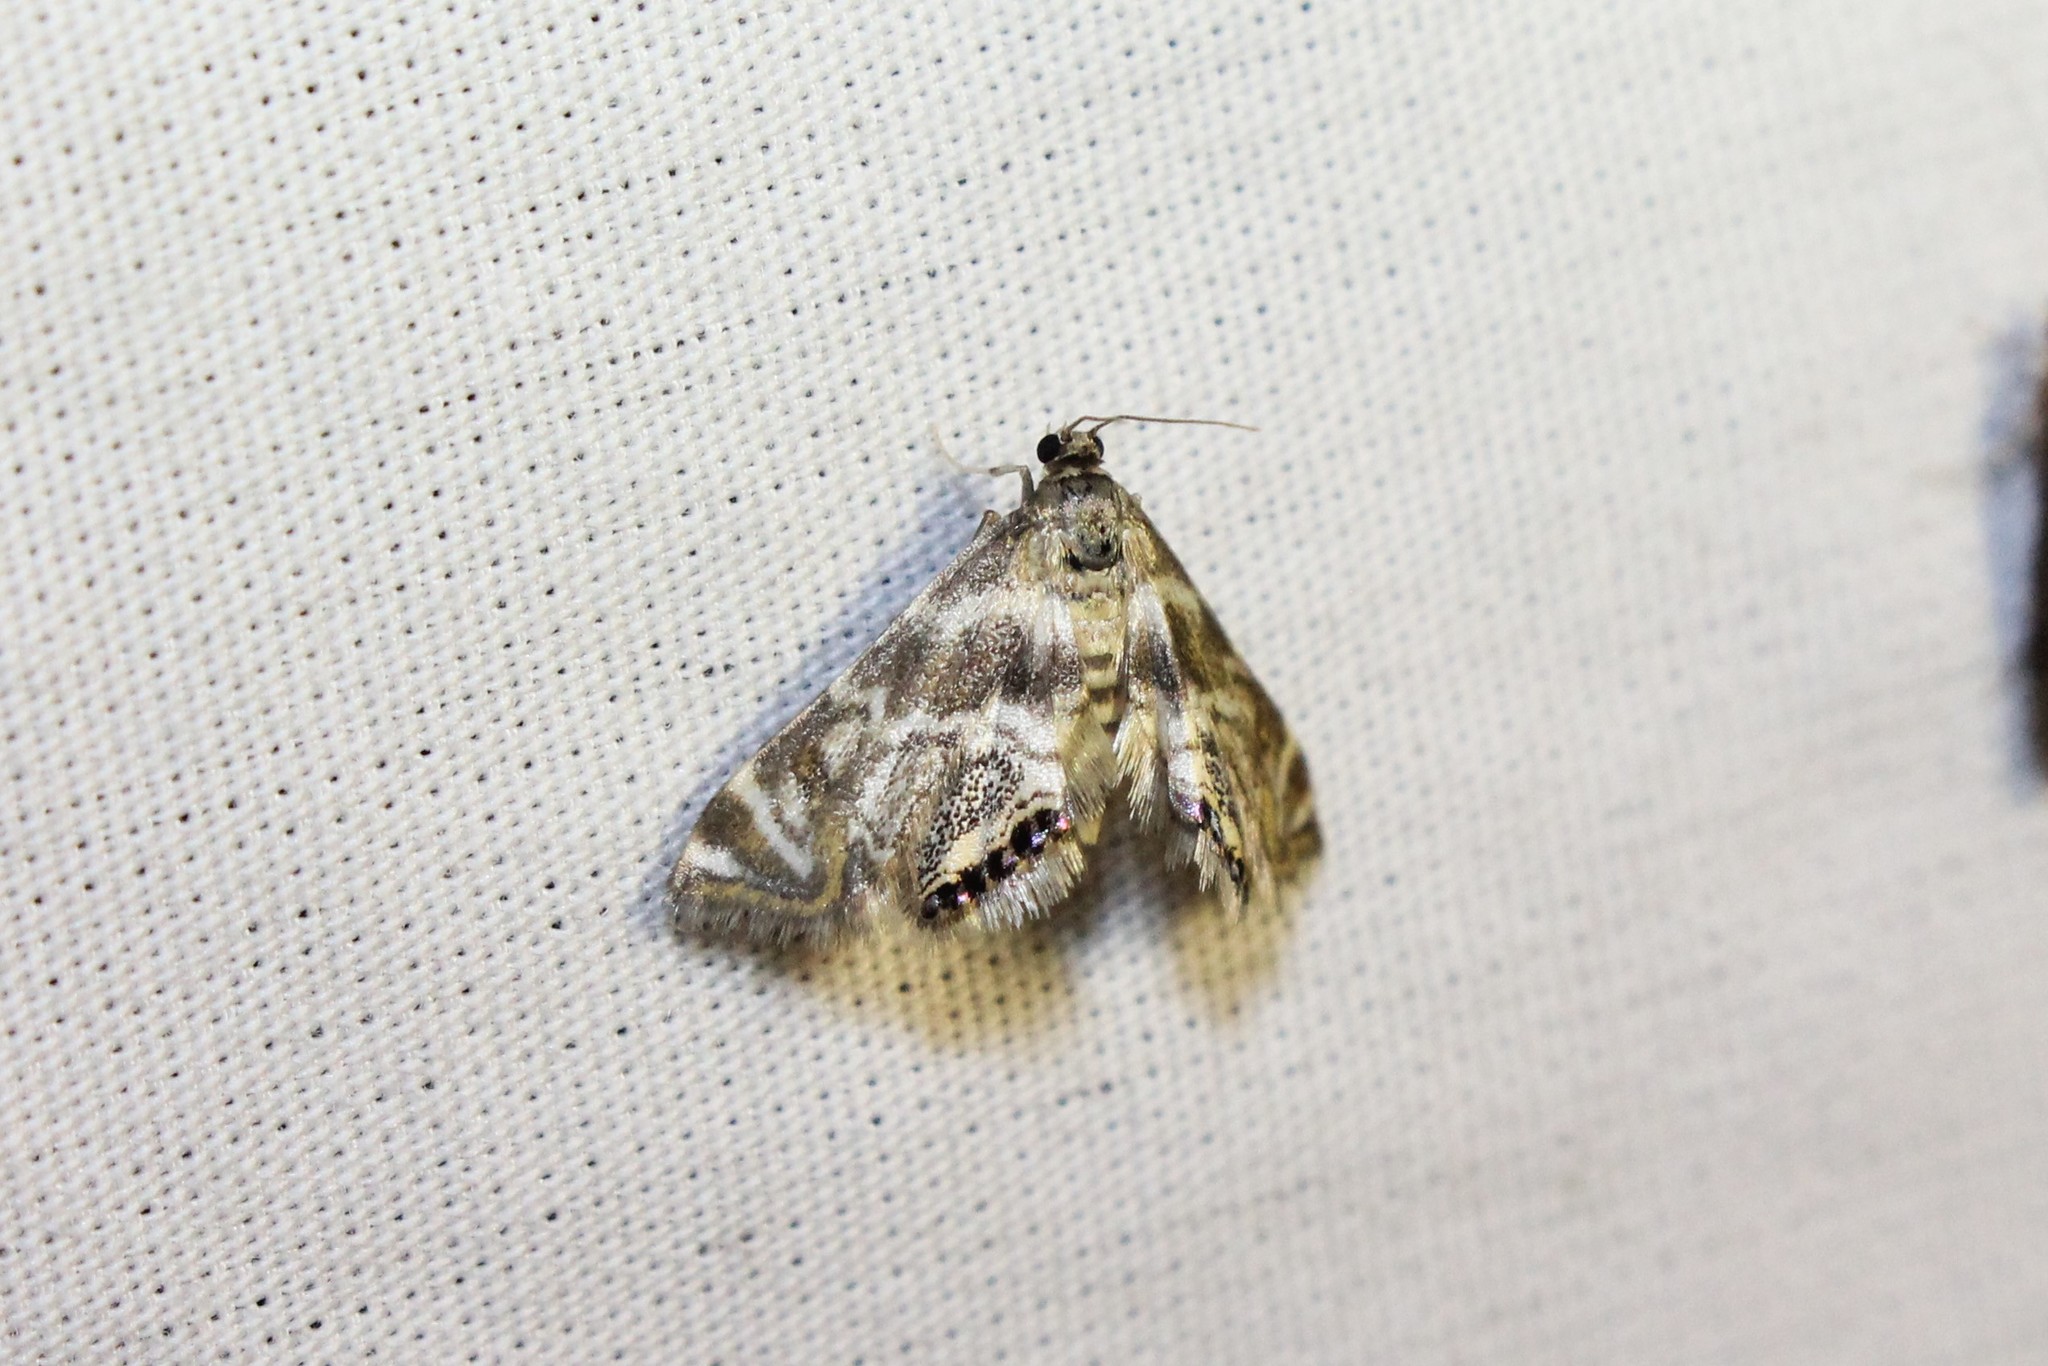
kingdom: Animalia
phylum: Arthropoda
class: Insecta
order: Lepidoptera
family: Crambidae
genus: Petrophila
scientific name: Petrophila canadensis
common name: Canadian petrophila
